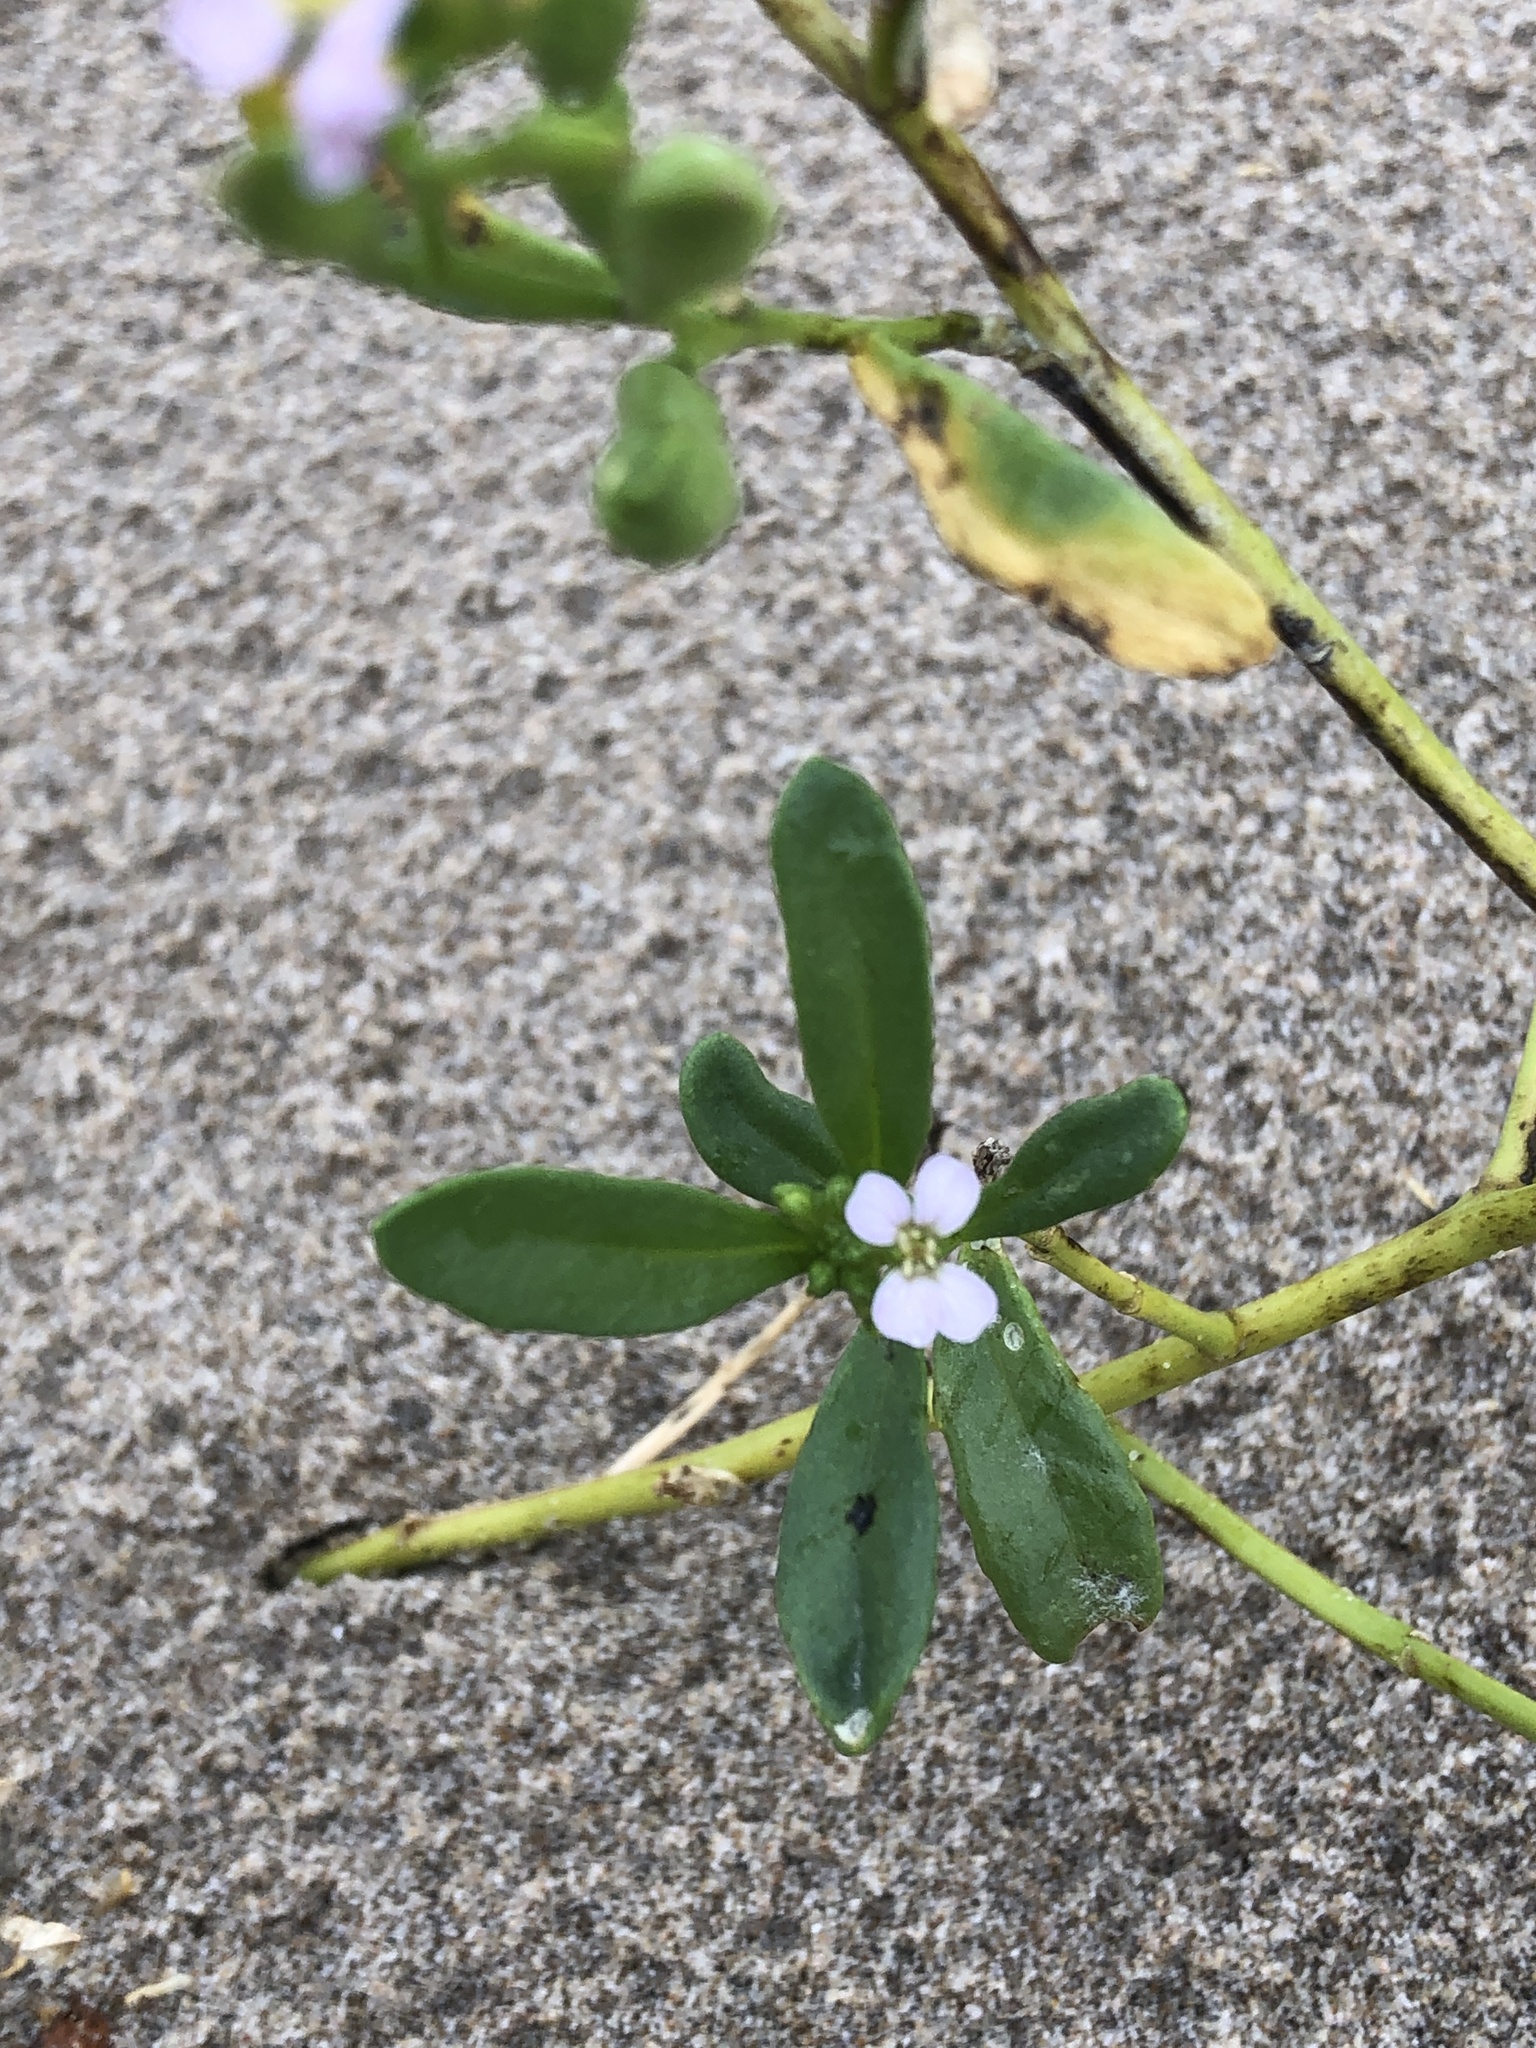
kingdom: Plantae
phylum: Tracheophyta
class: Magnoliopsida
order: Brassicales
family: Brassicaceae
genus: Cakile
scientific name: Cakile edentula
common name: American sea rocket
